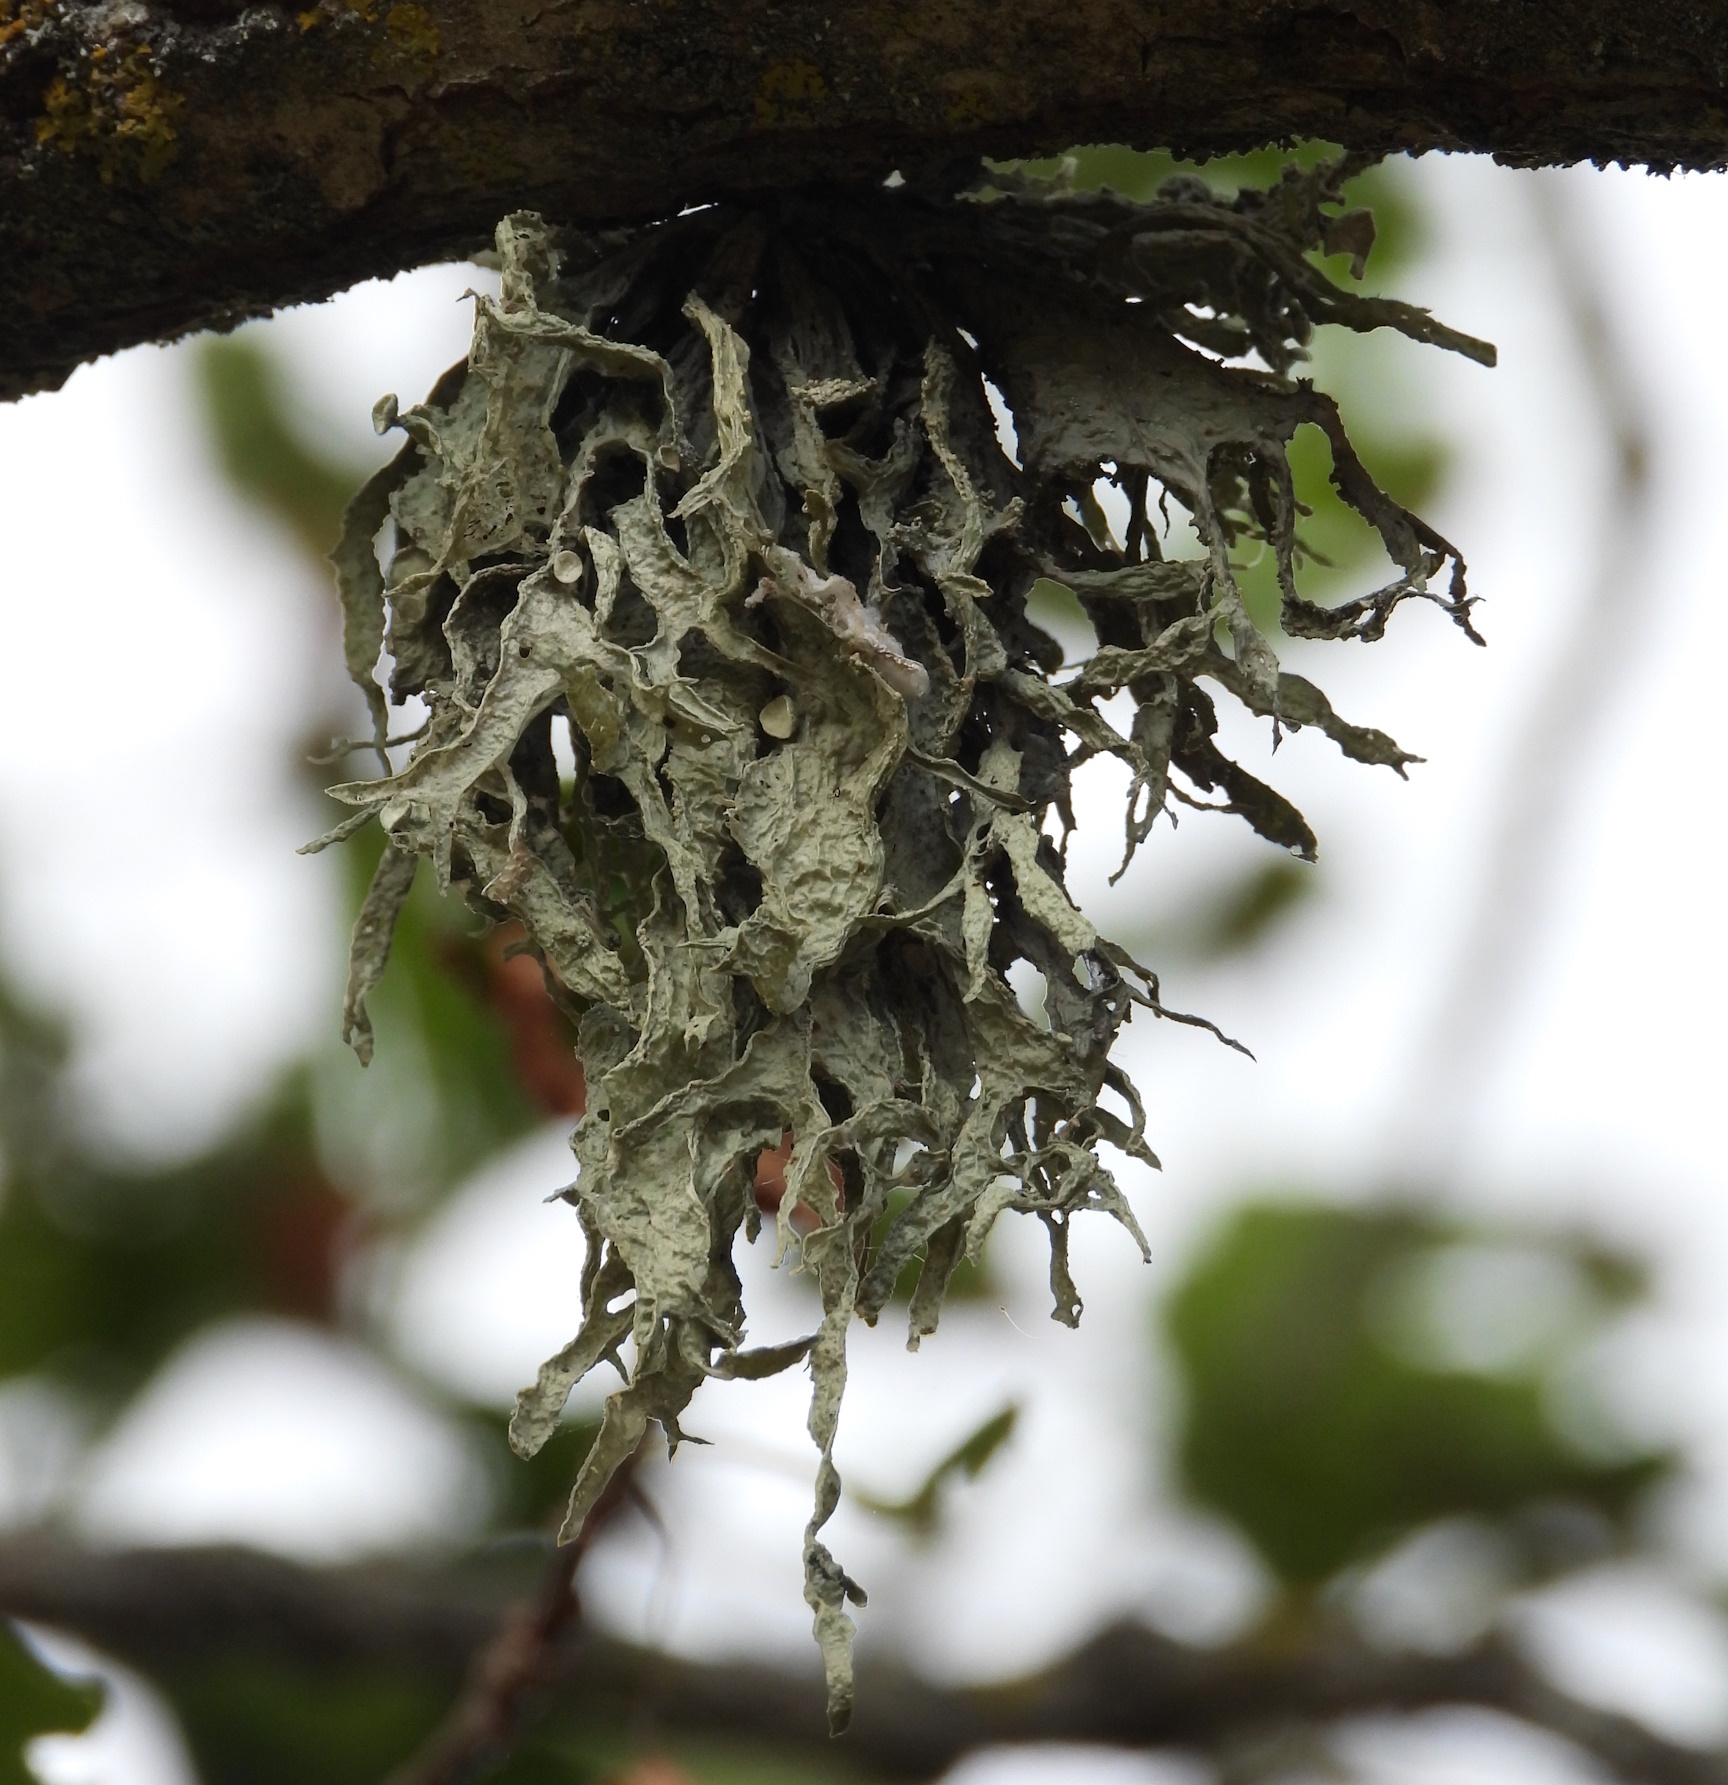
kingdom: Fungi
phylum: Ascomycota
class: Lecanoromycetes
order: Lecanorales
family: Ramalinaceae
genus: Ramalina
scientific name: Ramalina fraxinea
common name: Cartilage lichen
